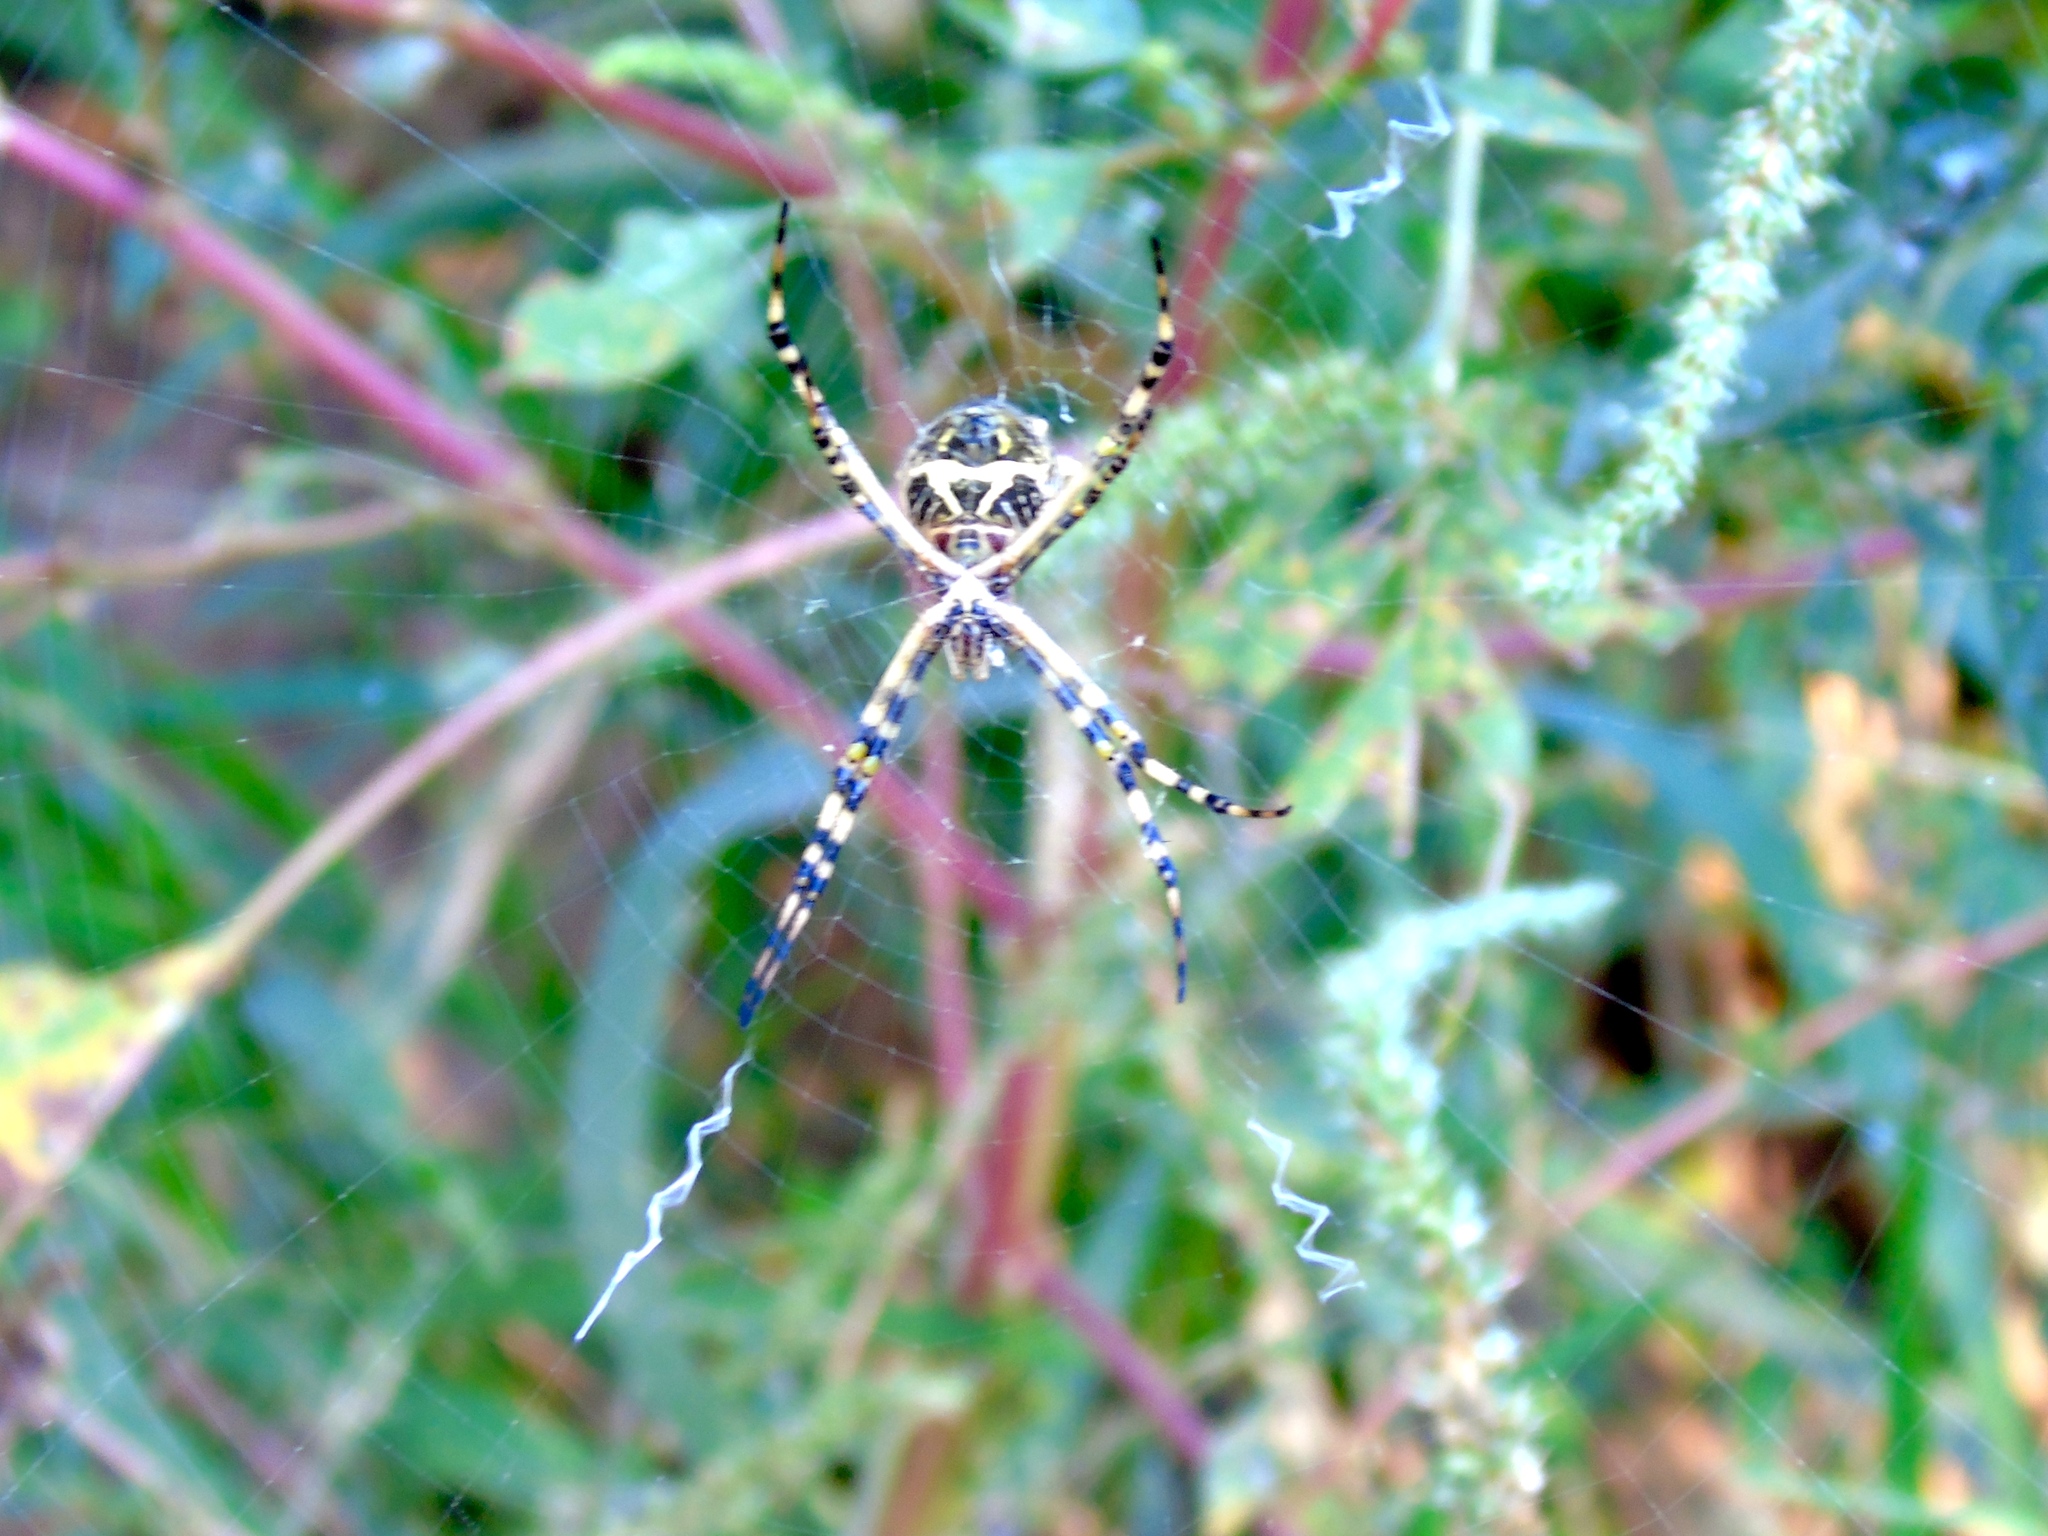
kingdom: Animalia
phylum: Arthropoda
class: Arachnida
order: Araneae
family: Araneidae
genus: Argiope
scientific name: Argiope argentata
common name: Orb weavers
